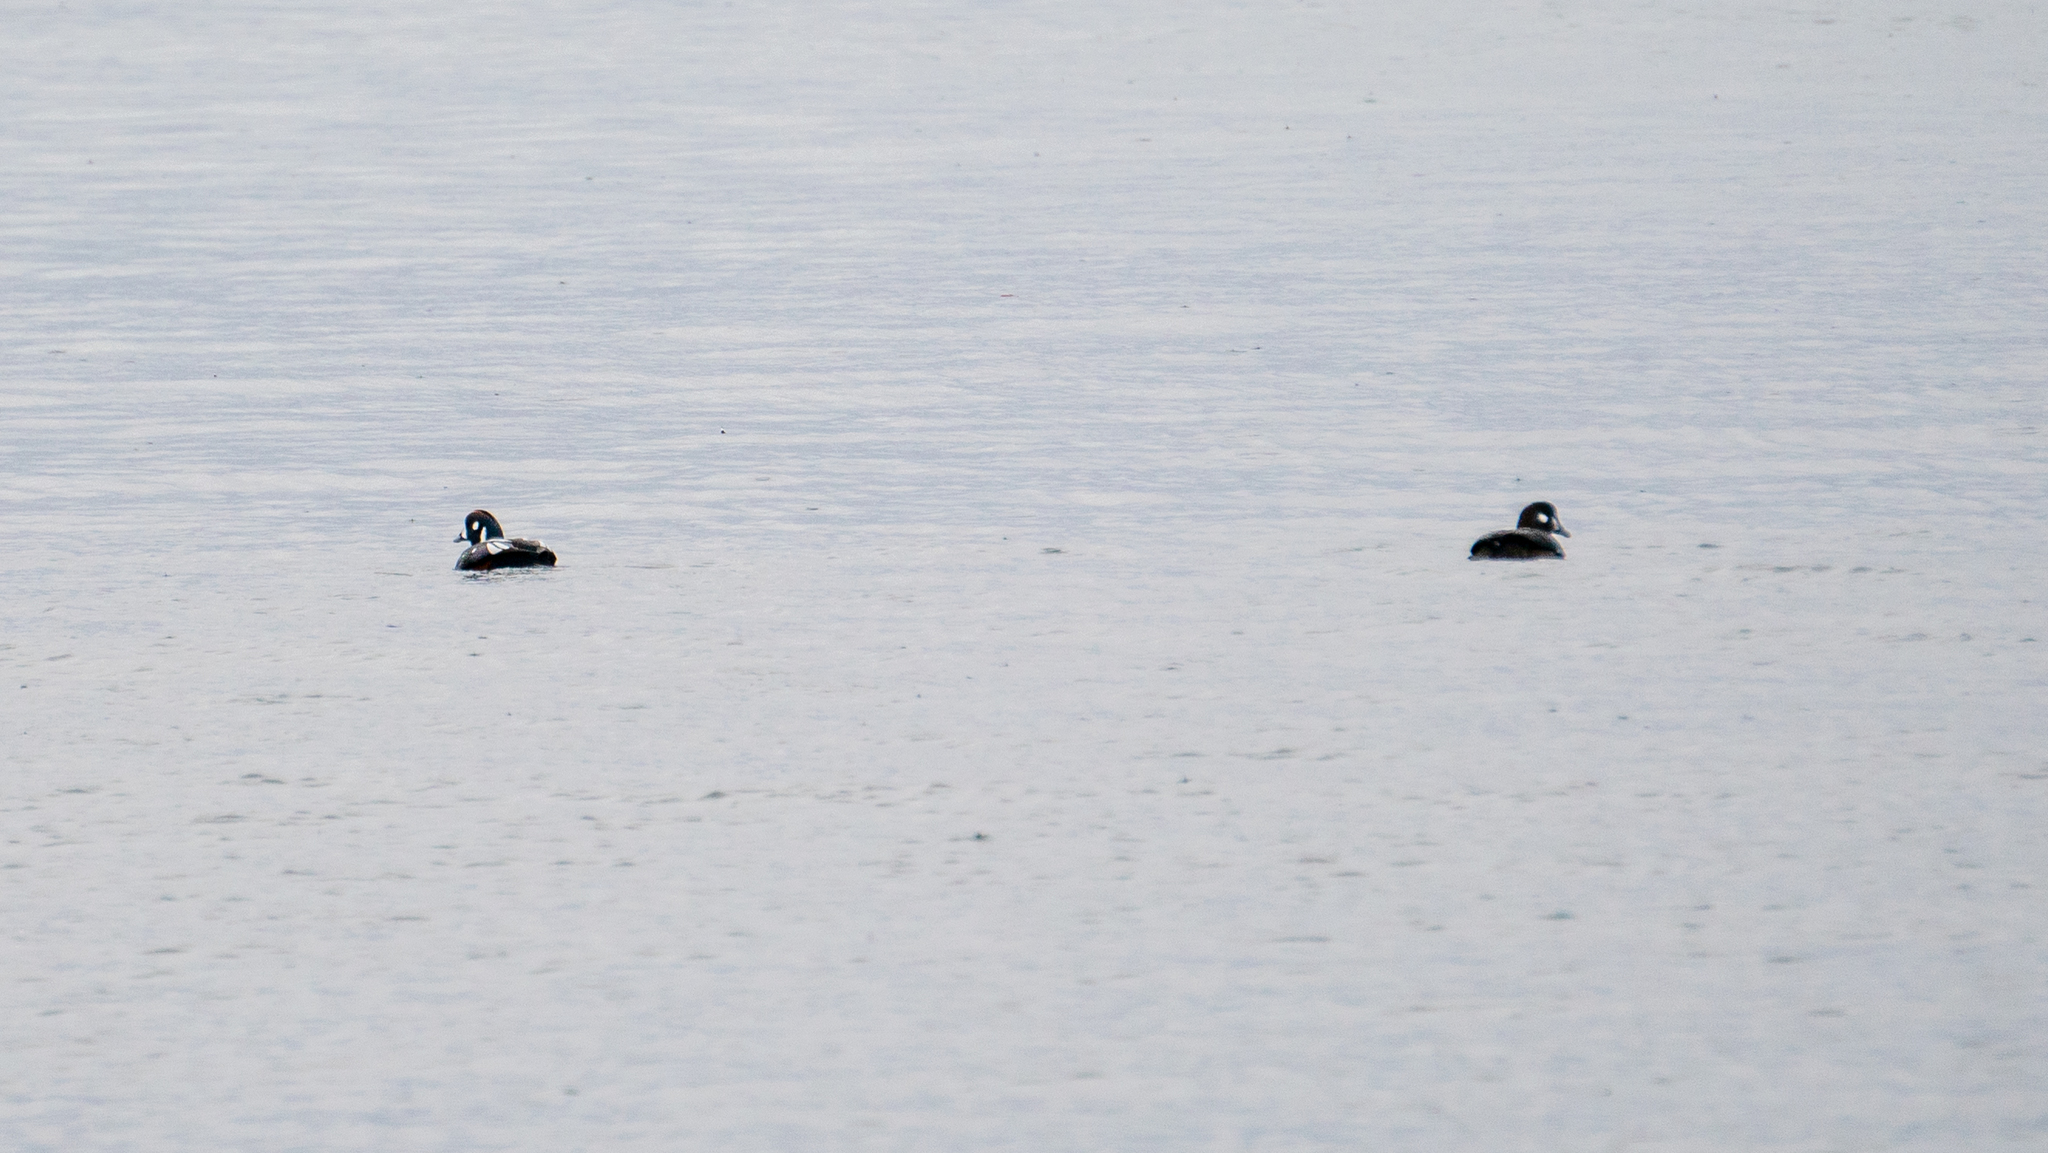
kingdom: Animalia
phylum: Chordata
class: Aves
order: Anseriformes
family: Anatidae
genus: Histrionicus
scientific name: Histrionicus histrionicus
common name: Harlequin duck
